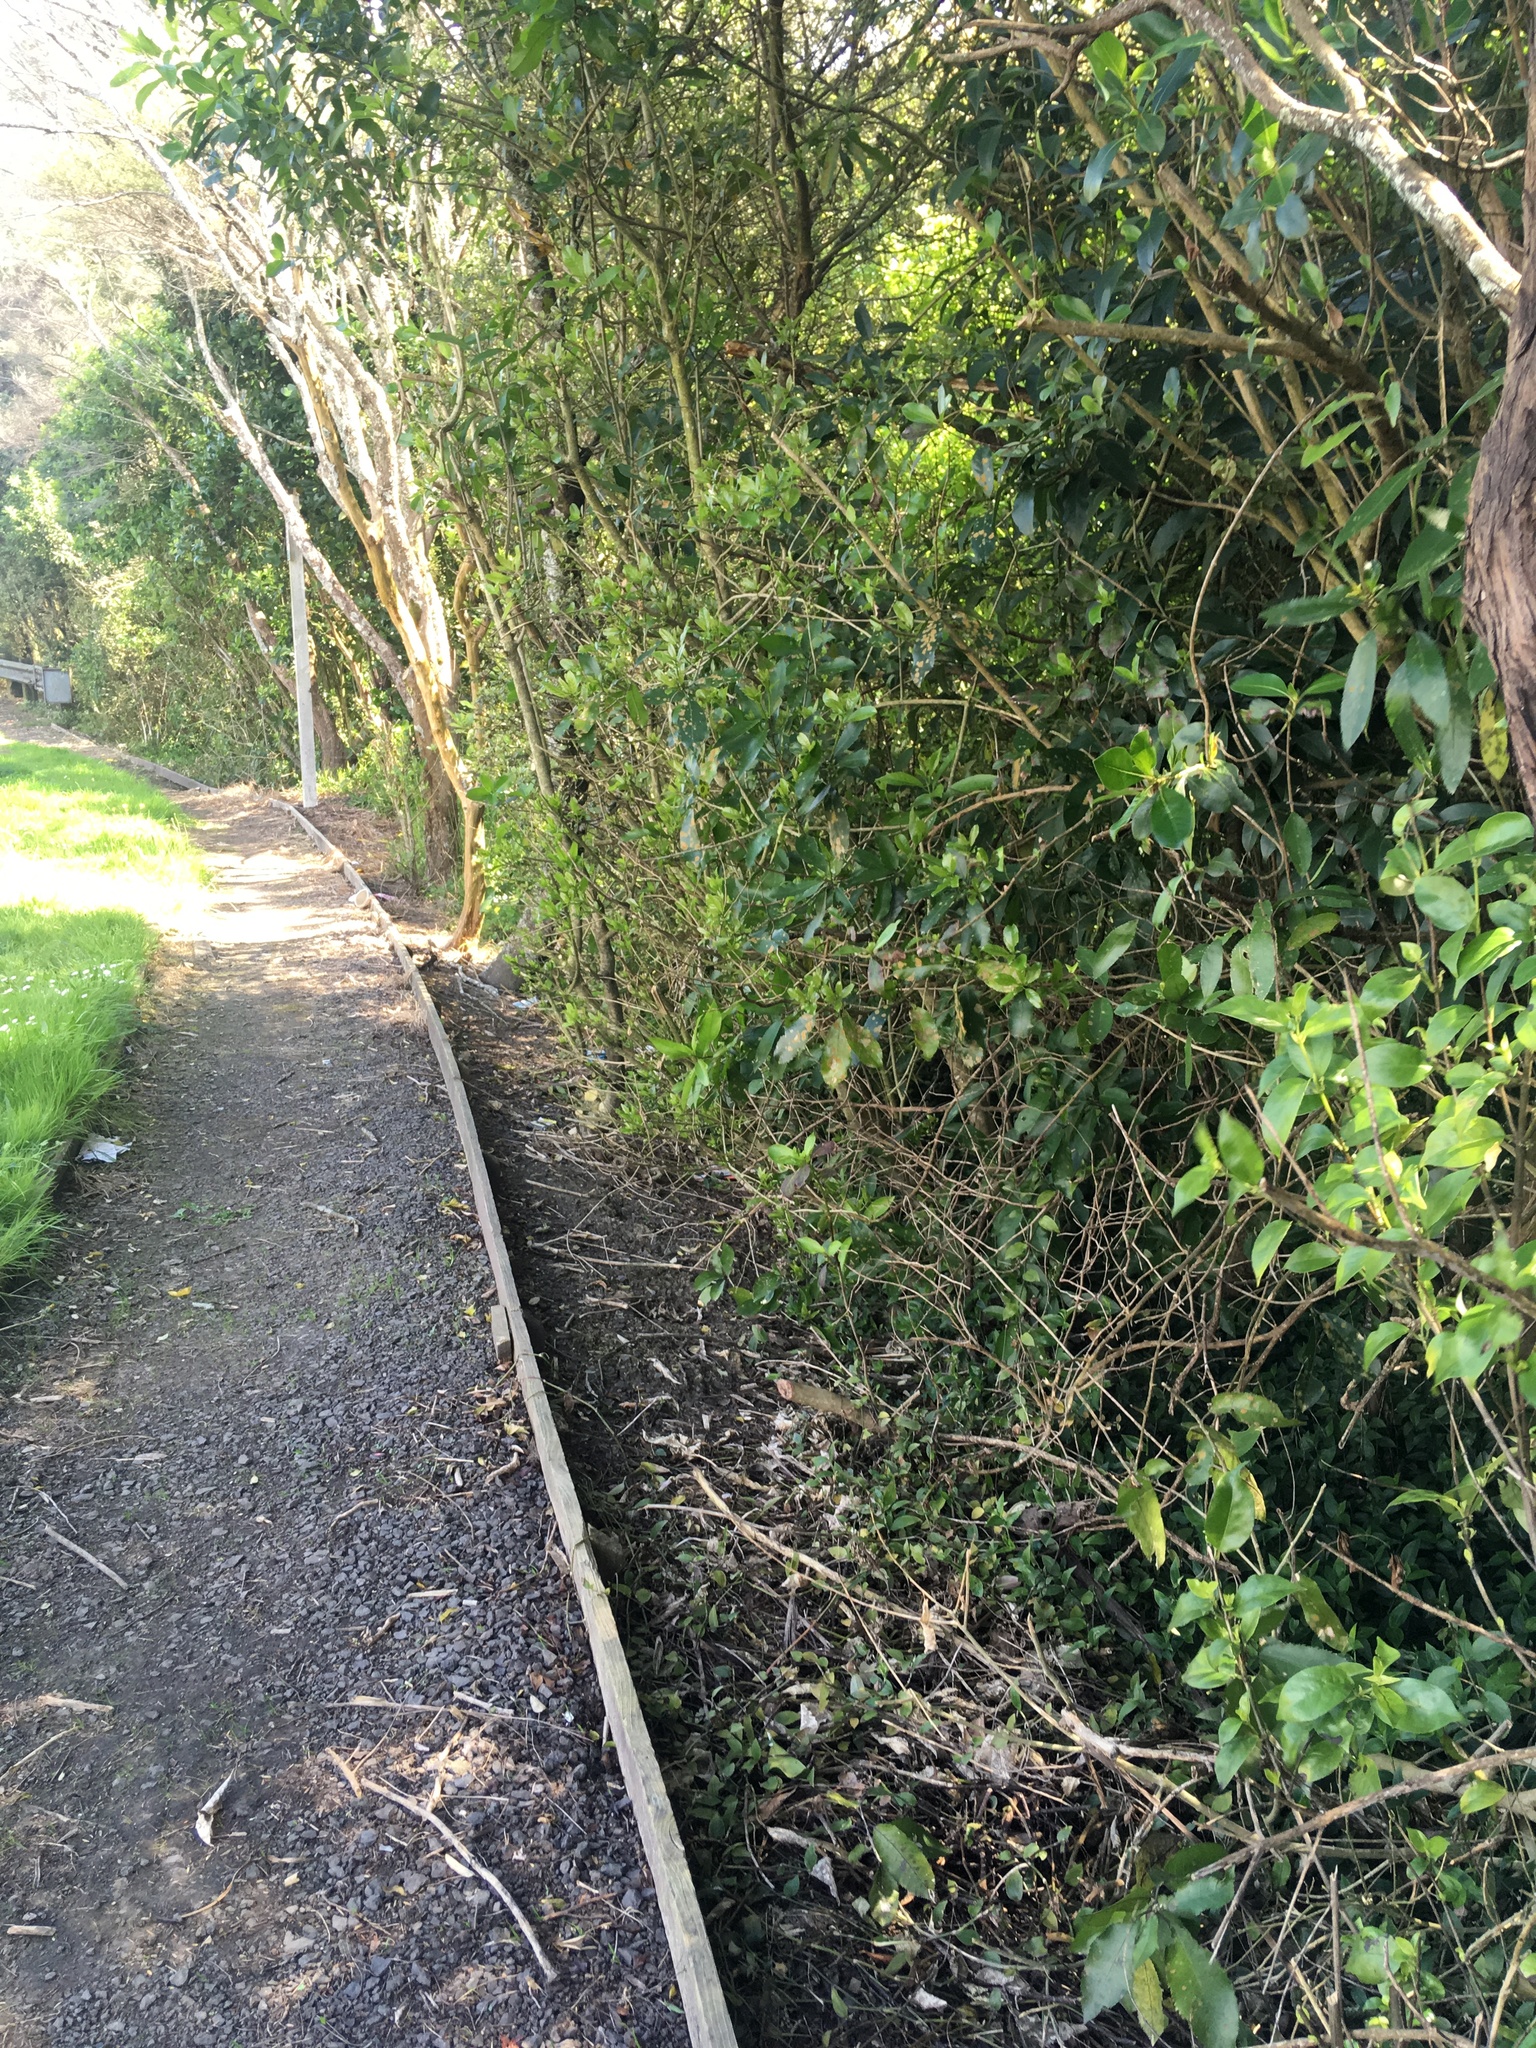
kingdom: Plantae
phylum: Tracheophyta
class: Magnoliopsida
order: Gentianales
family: Loganiaceae
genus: Geniostoma
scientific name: Geniostoma ligustrifolium
